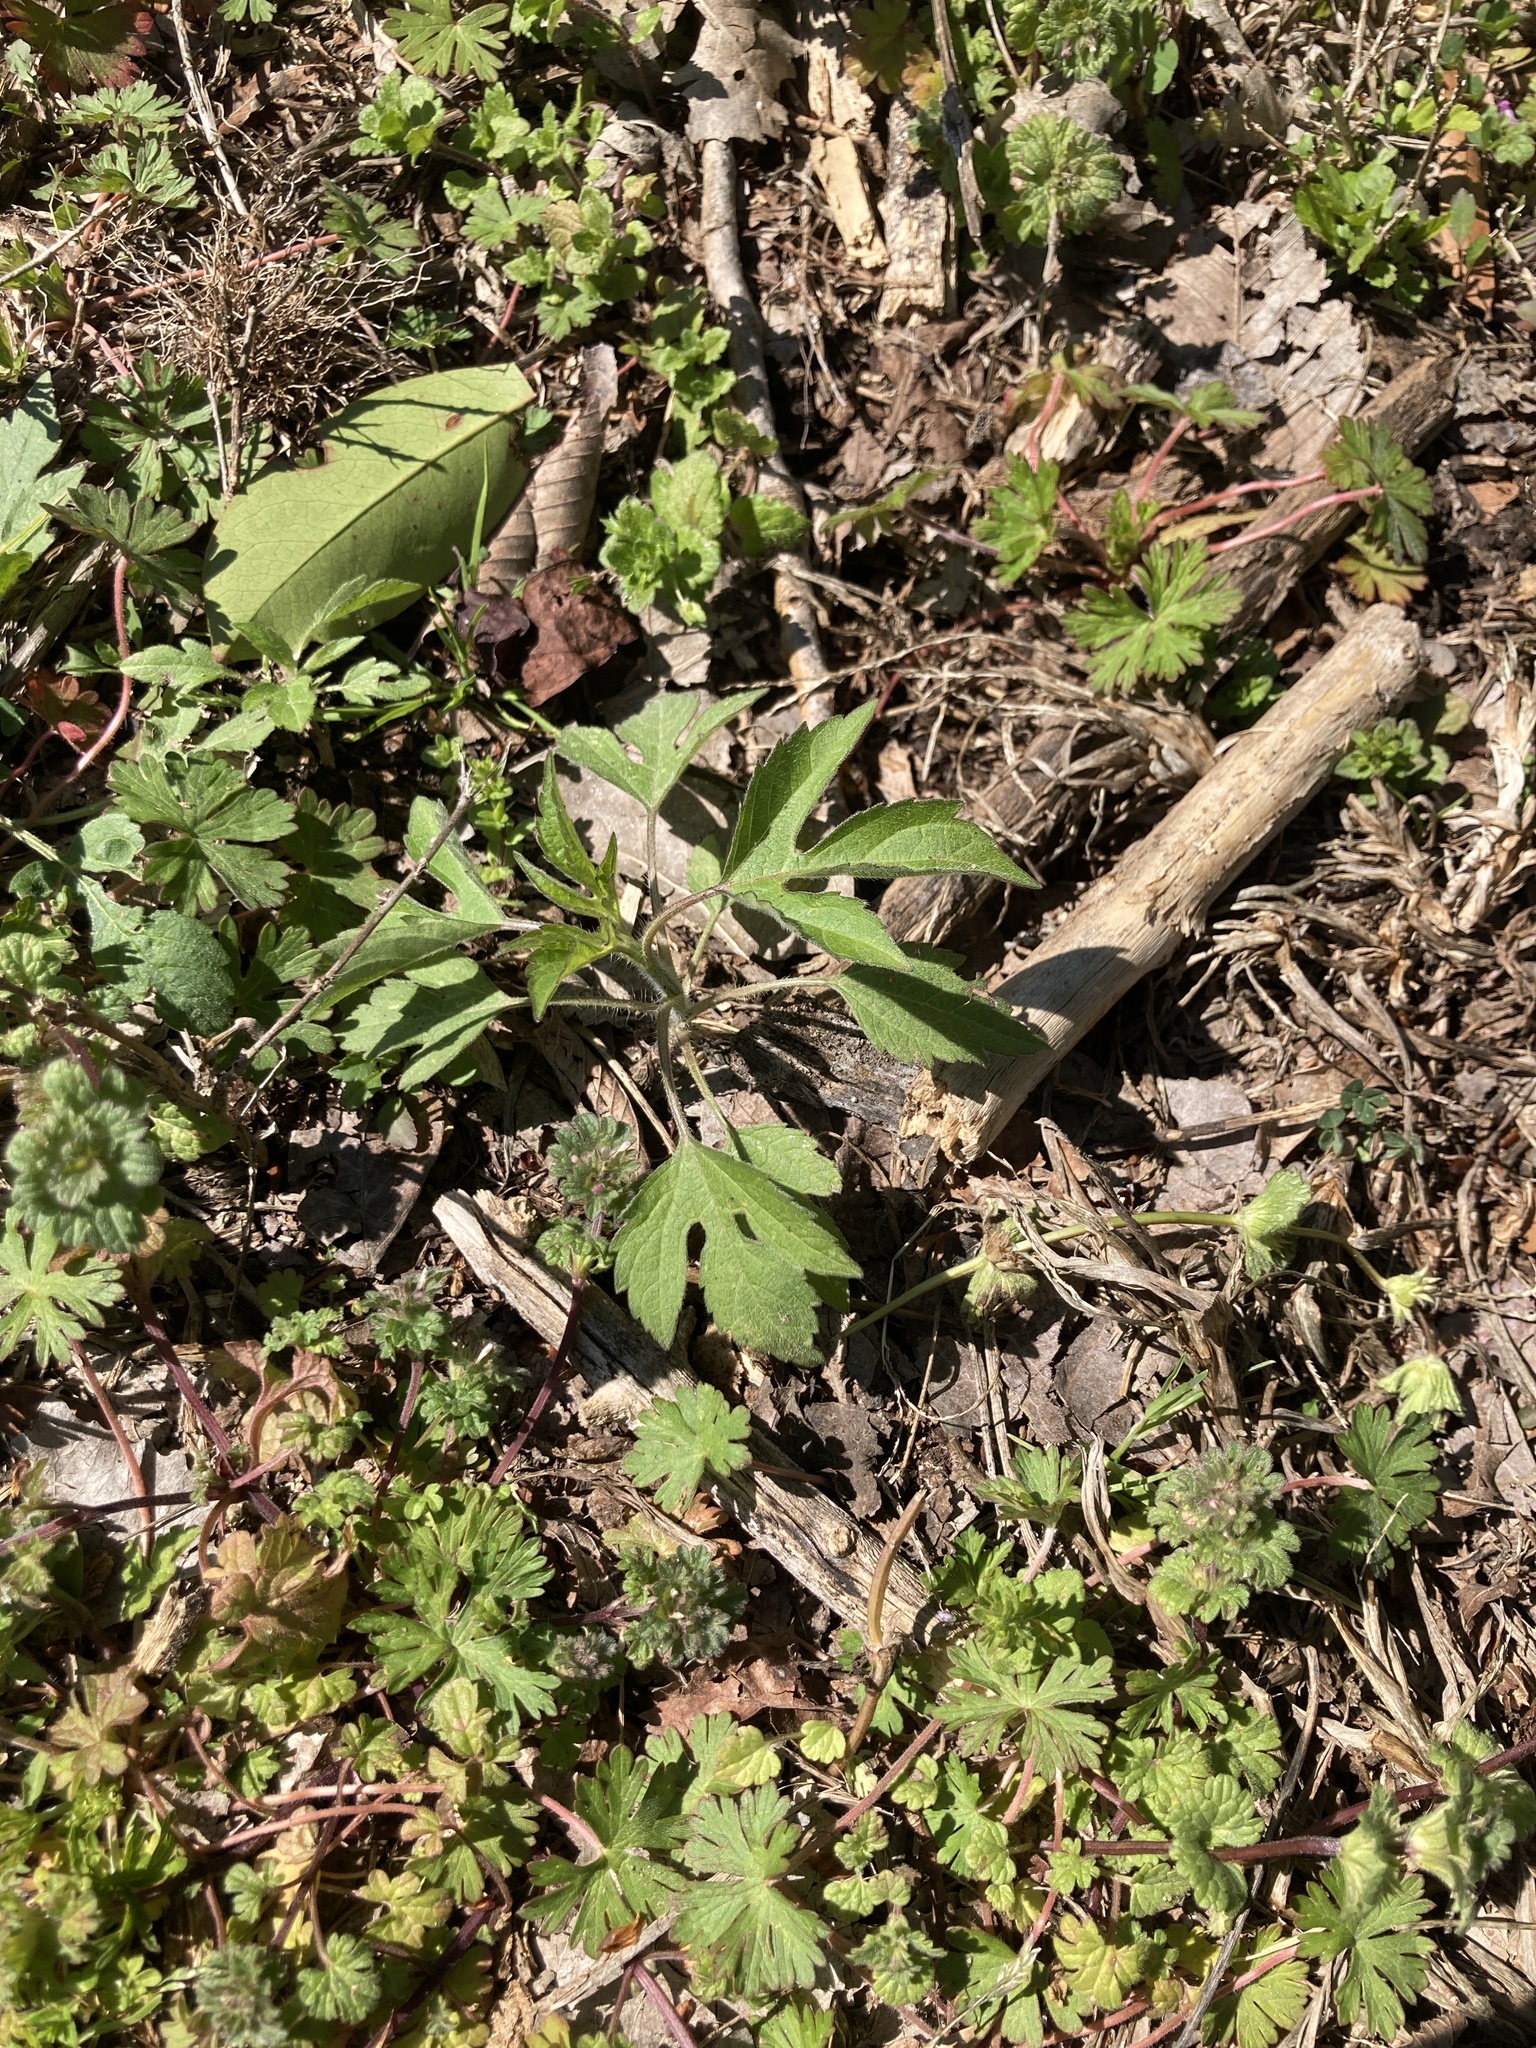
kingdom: Plantae
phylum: Tracheophyta
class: Magnoliopsida
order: Asterales
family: Asteraceae
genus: Ambrosia
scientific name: Ambrosia trifida
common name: Giant ragweed
